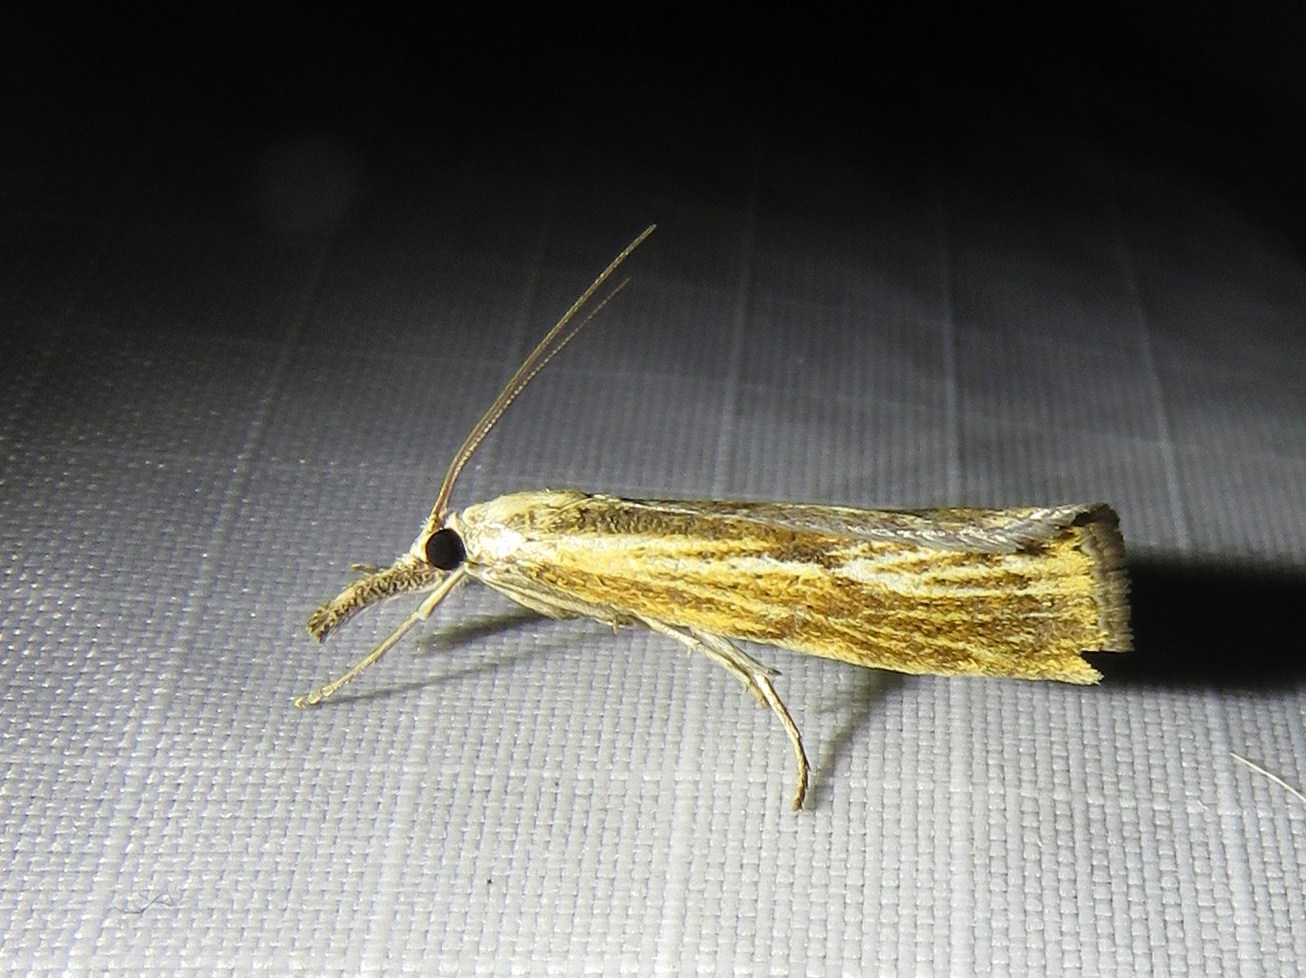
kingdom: Animalia
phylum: Arthropoda
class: Insecta
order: Lepidoptera
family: Crambidae
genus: Agriphila
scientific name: Agriphila inquinatella
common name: Barred grass-veneer
